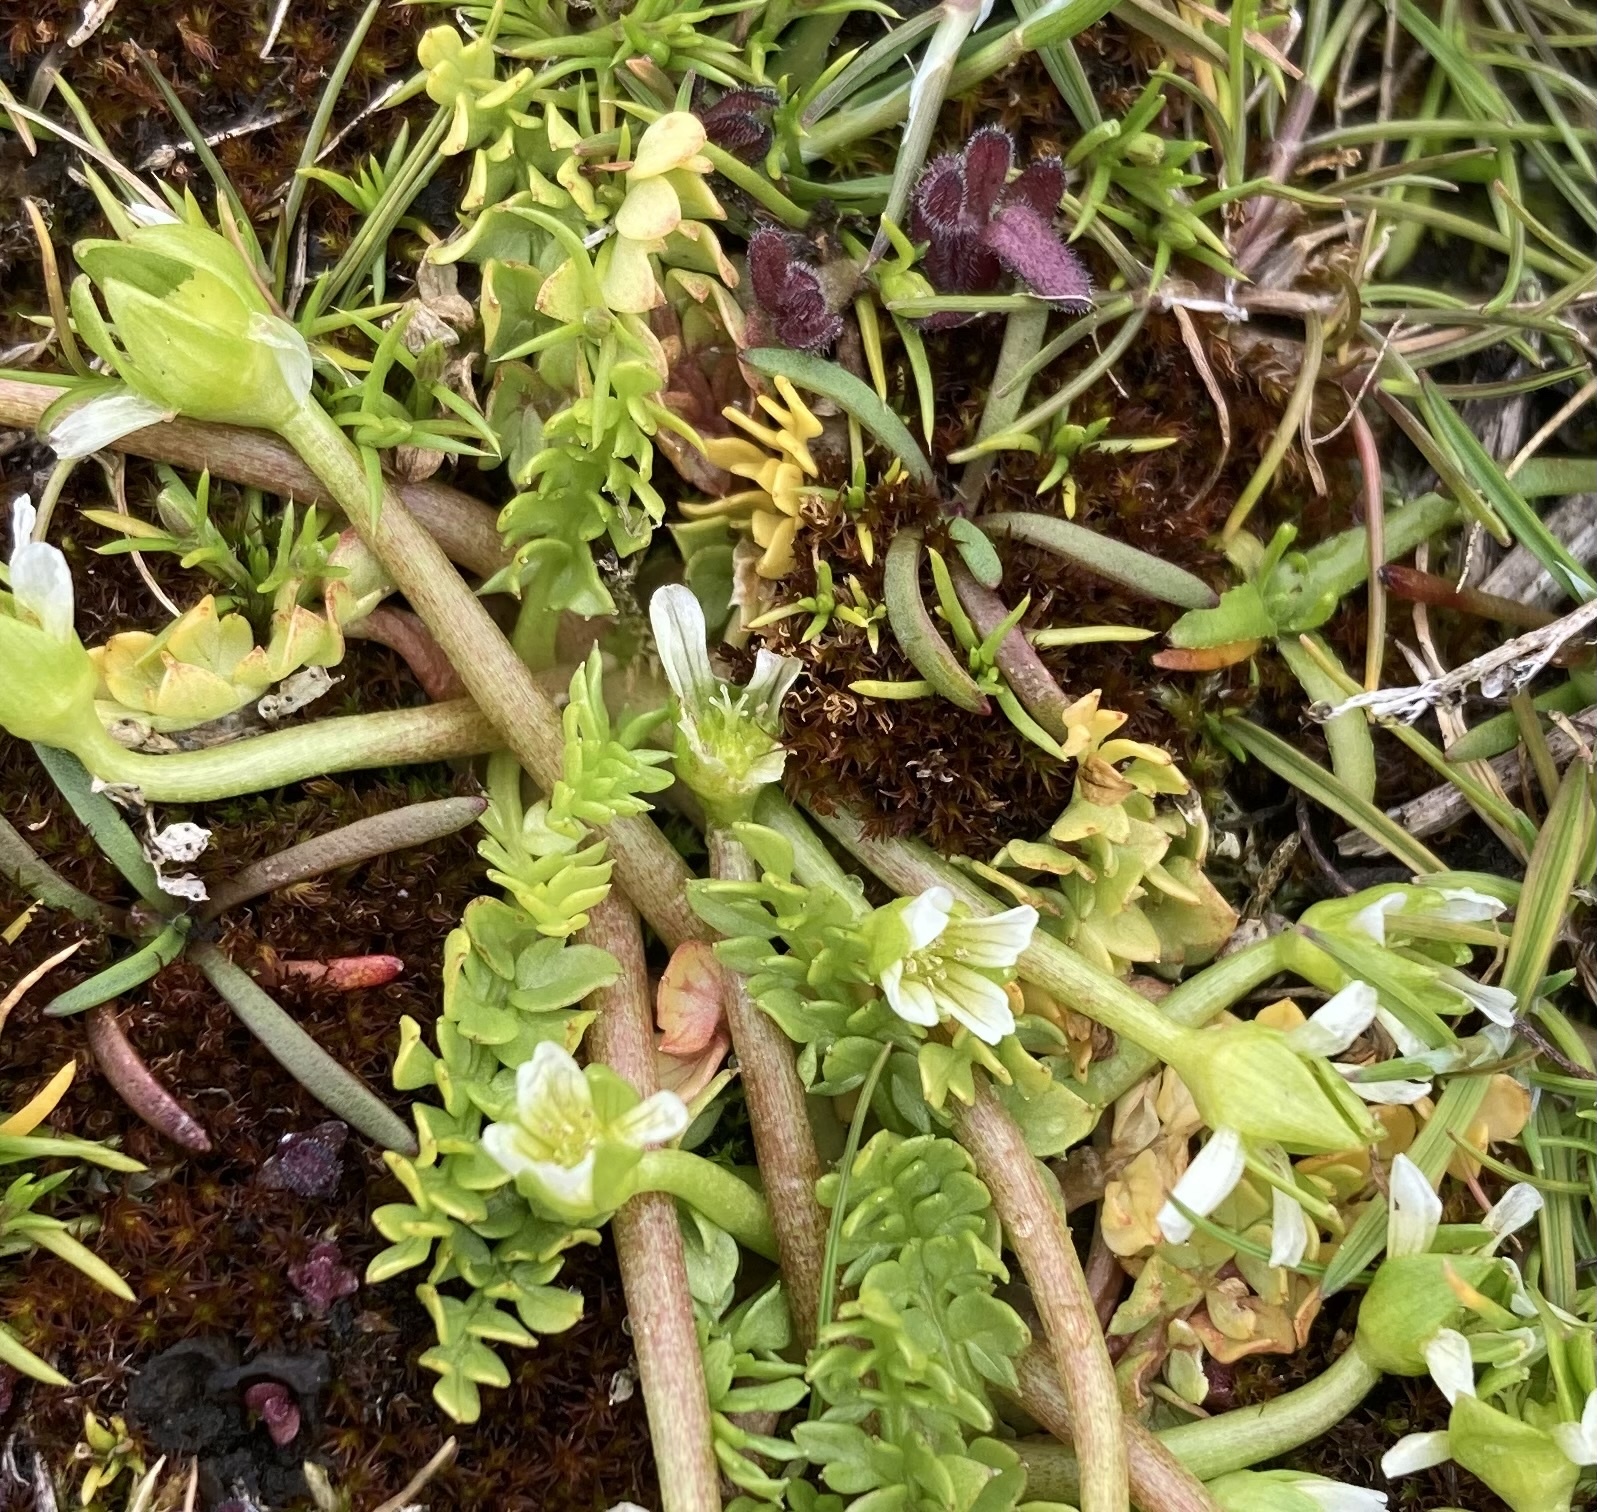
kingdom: Plantae
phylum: Tracheophyta
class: Magnoliopsida
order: Brassicales
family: Limnanthaceae
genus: Limnanthes
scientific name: Limnanthes macounii
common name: Macoun's meadowfoam
